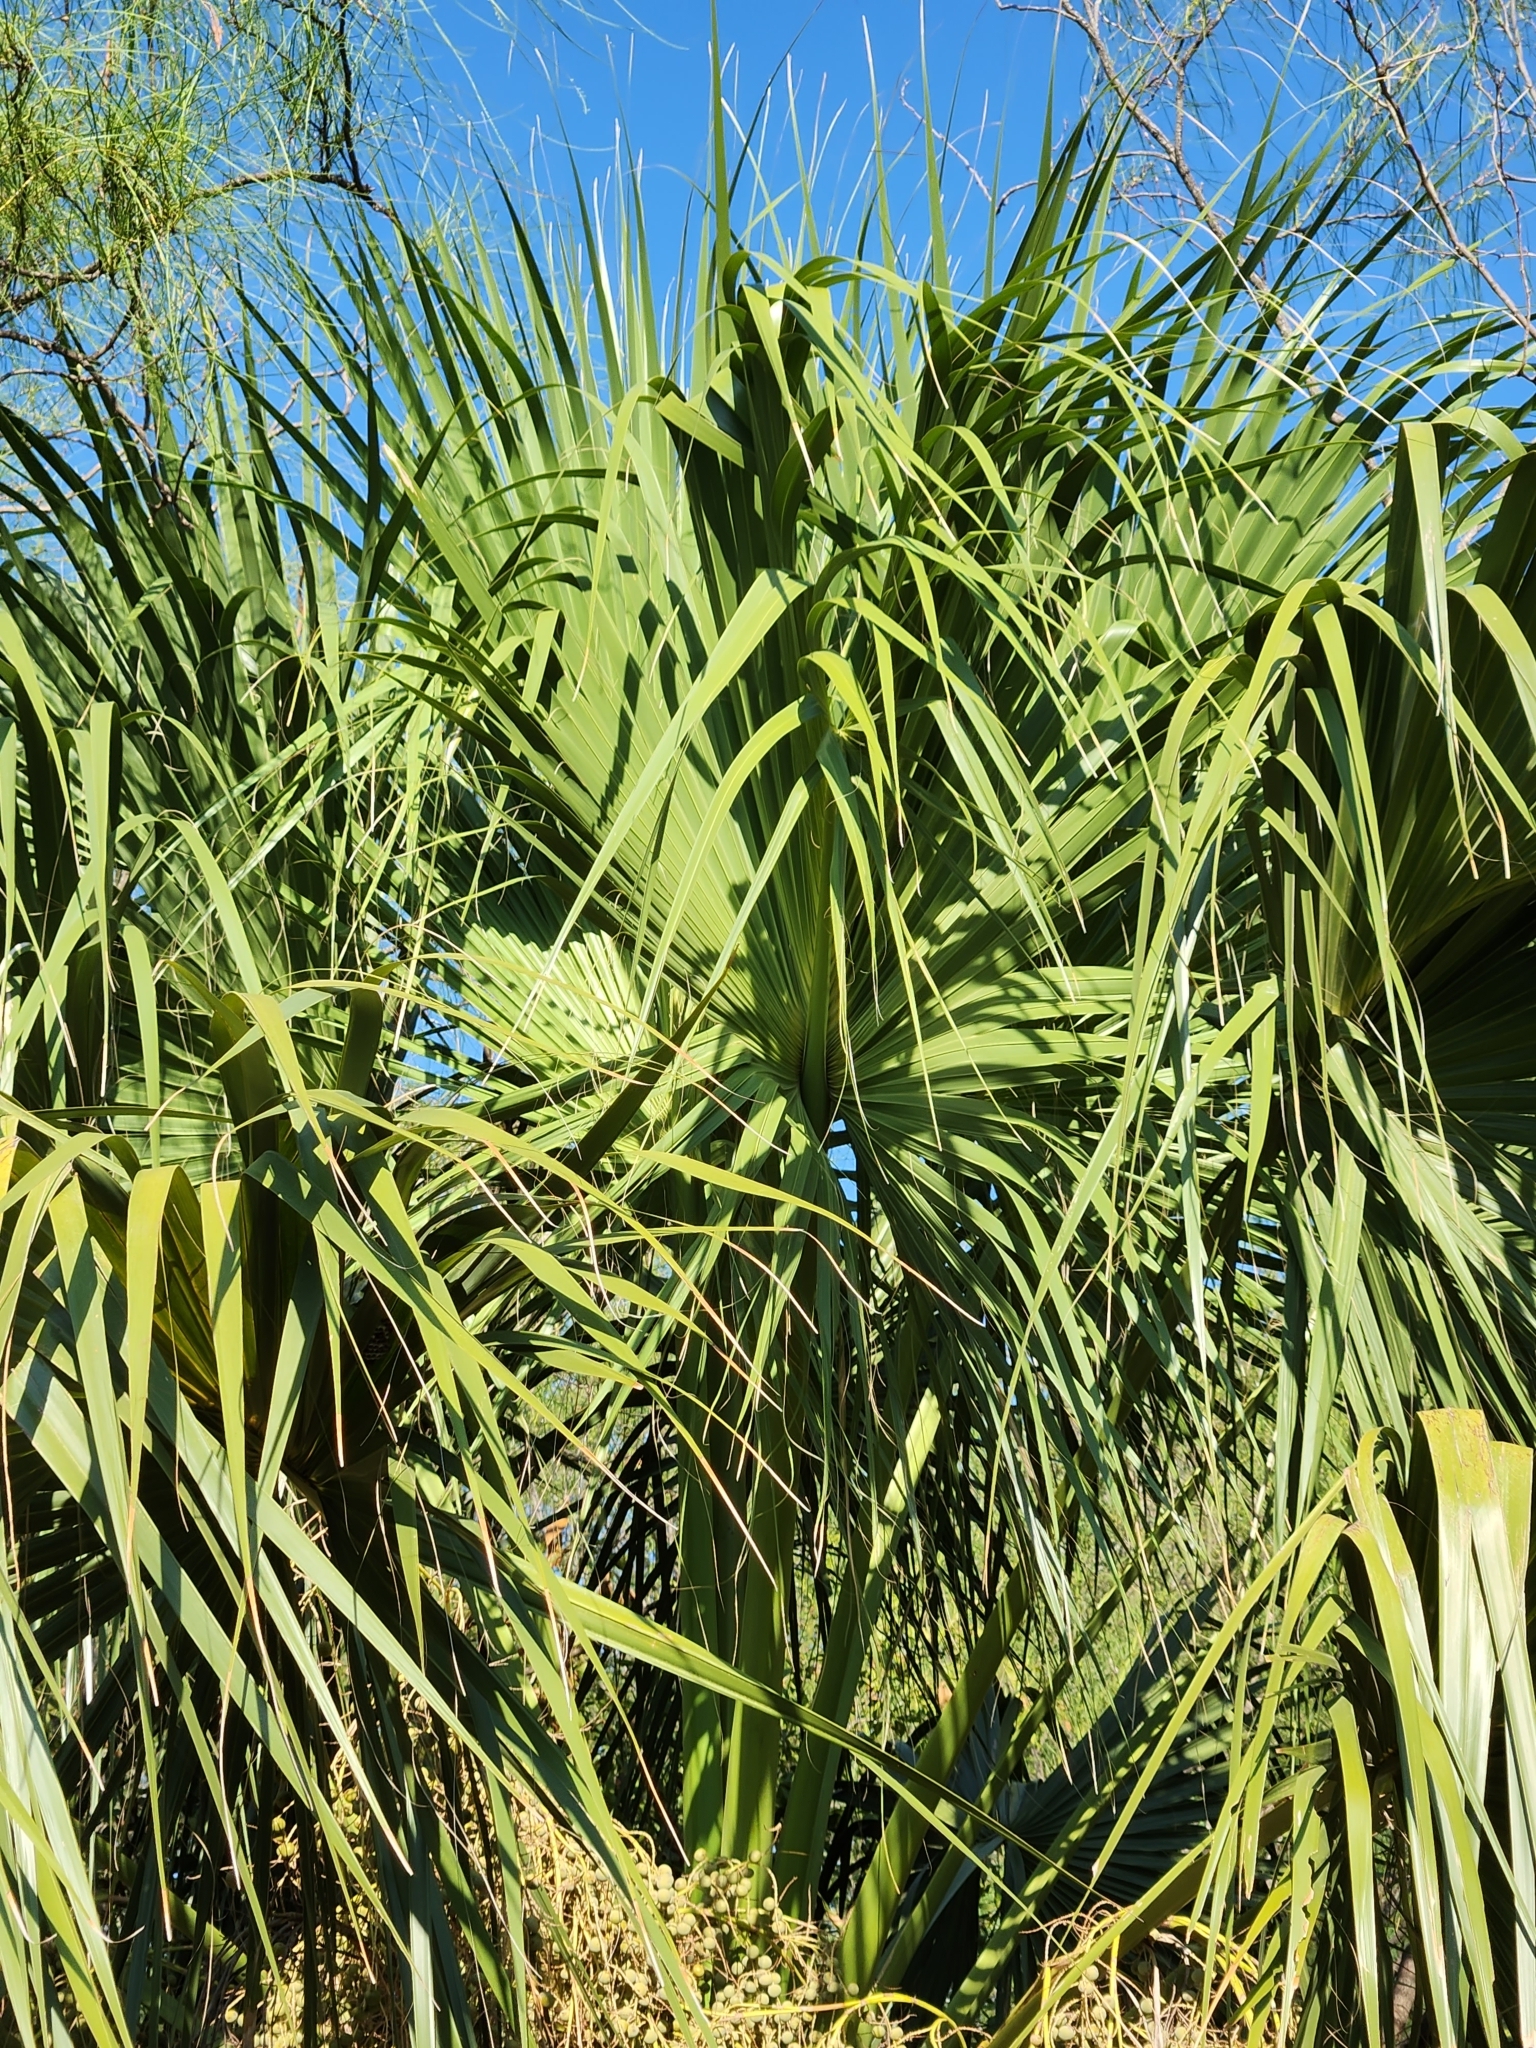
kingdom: Plantae
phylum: Tracheophyta
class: Liliopsida
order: Arecales
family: Arecaceae
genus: Sabal
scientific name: Sabal mexicana
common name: Texas palmetto
